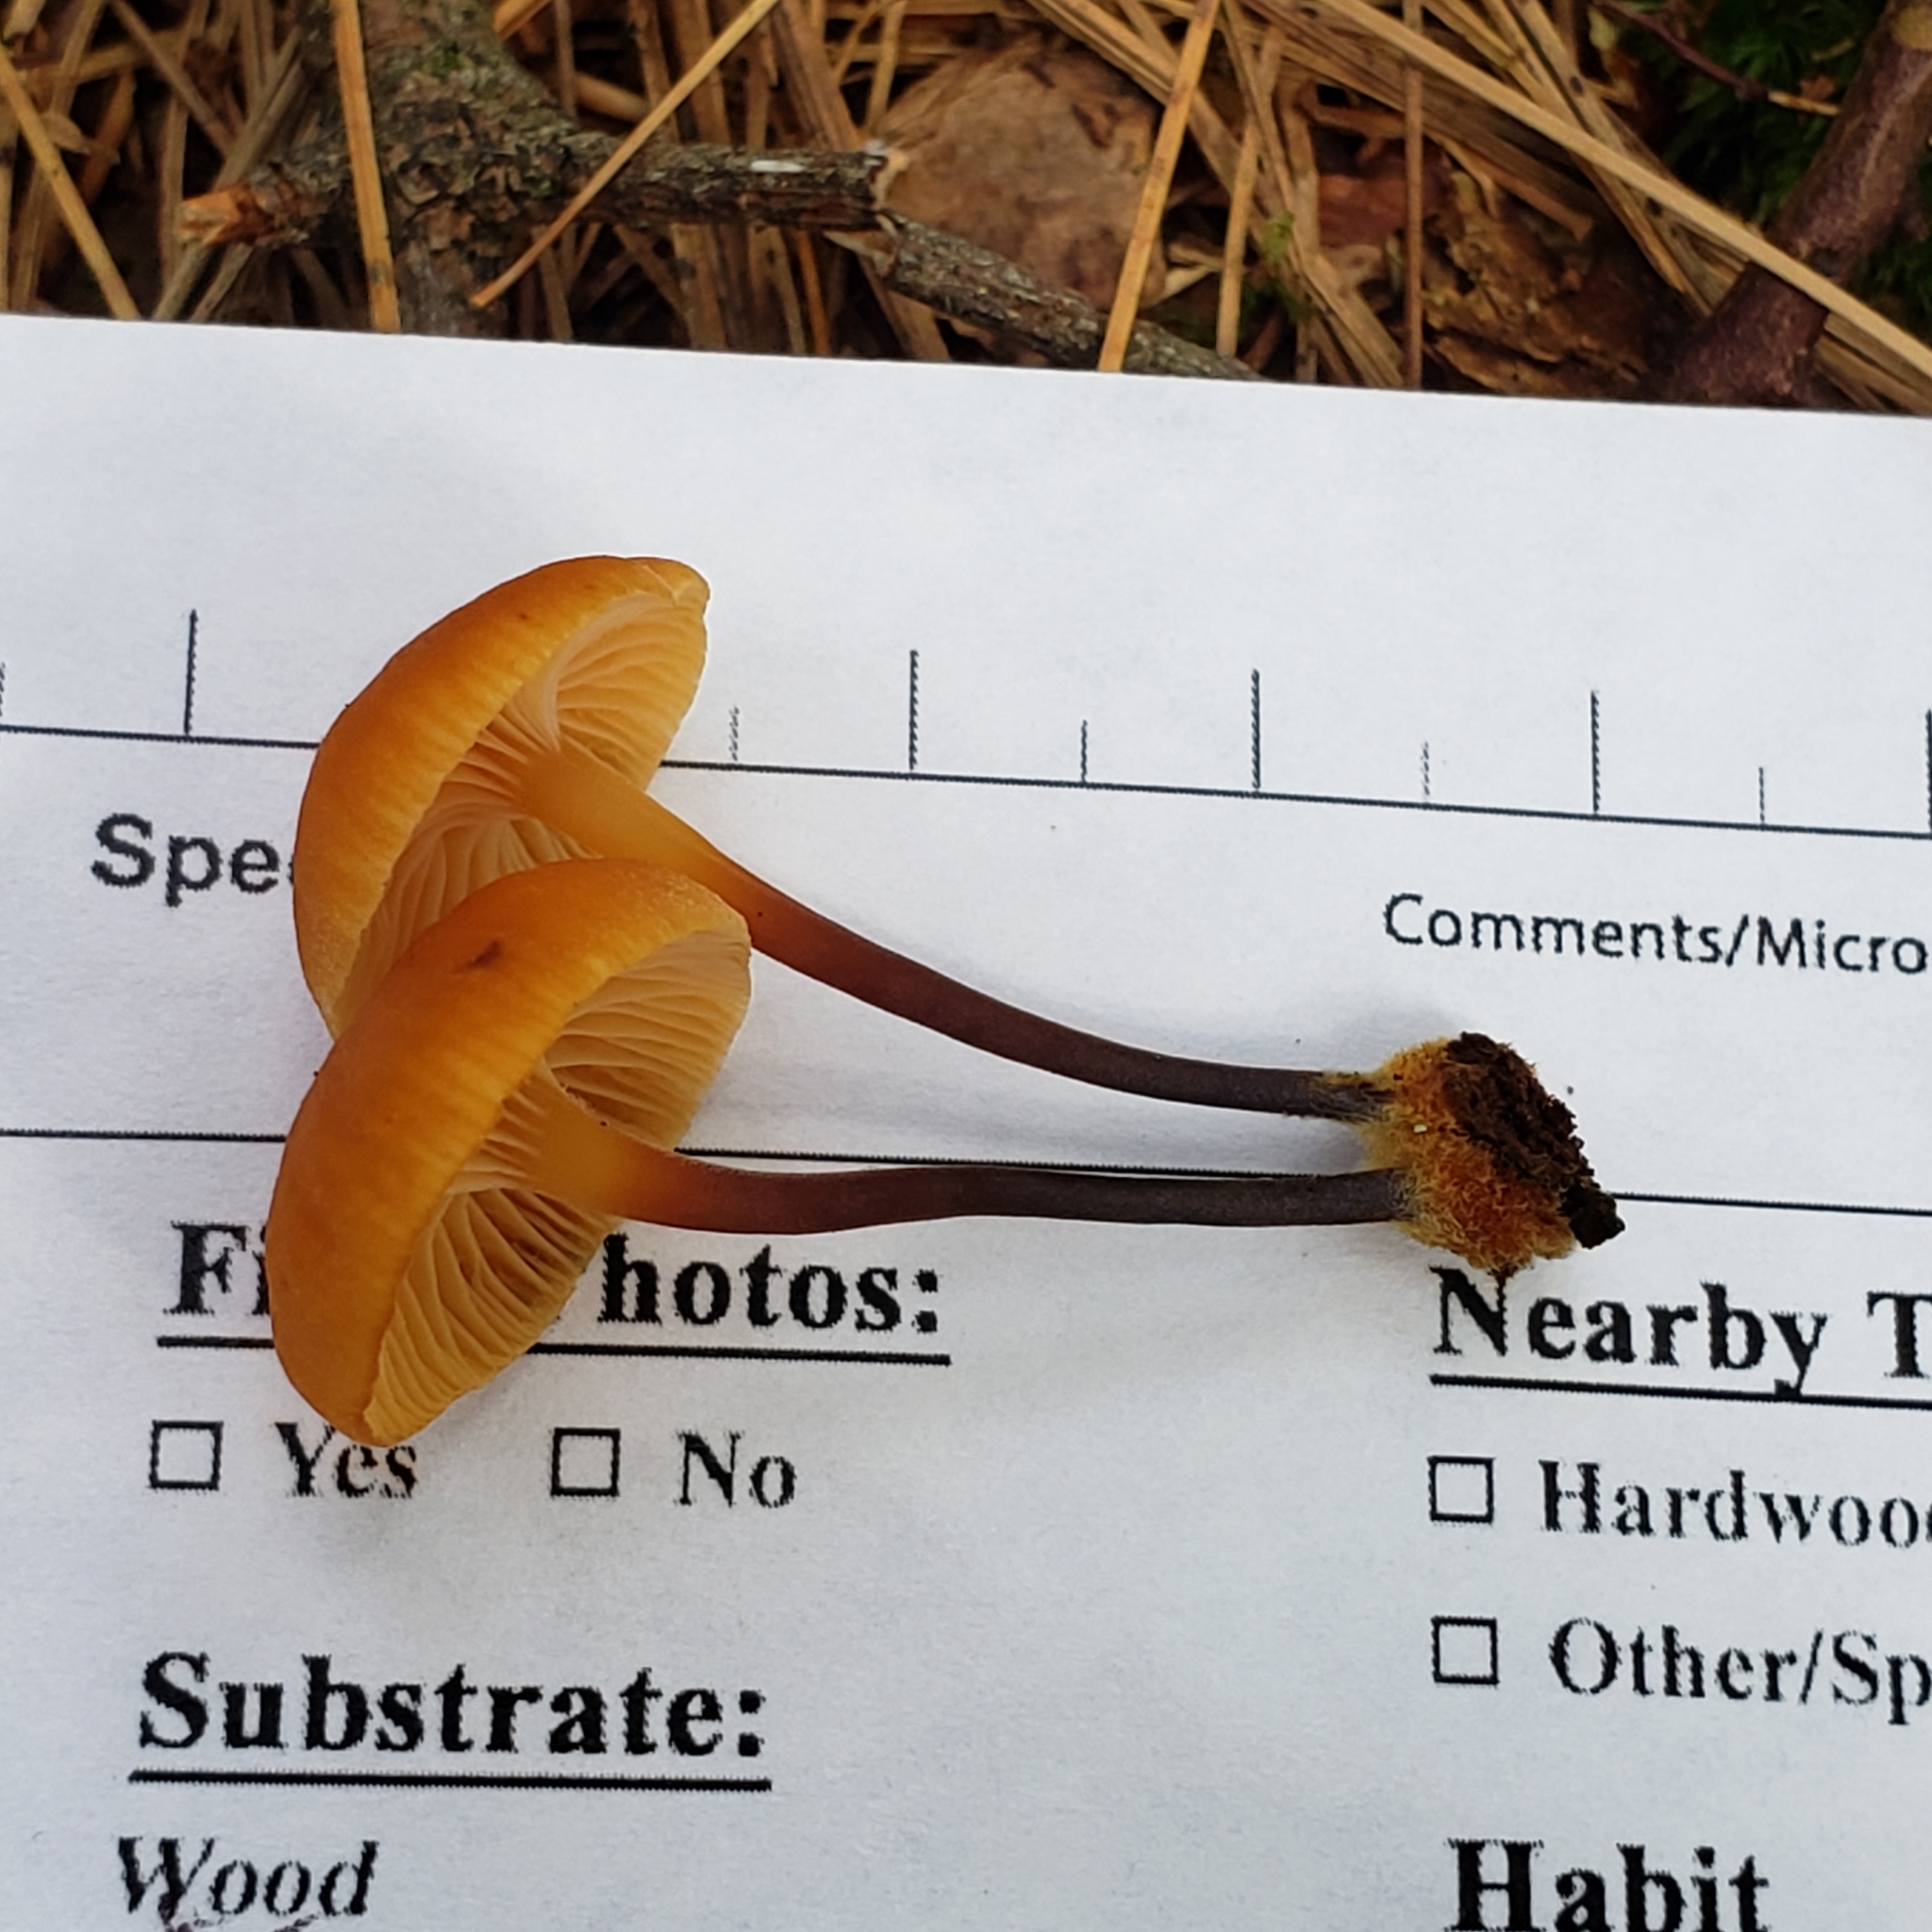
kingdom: Fungi
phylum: Basidiomycota
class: Agaricomycetes
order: Agaricales
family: Mycenaceae
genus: Xeromphalina
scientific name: Xeromphalina enigmatica
